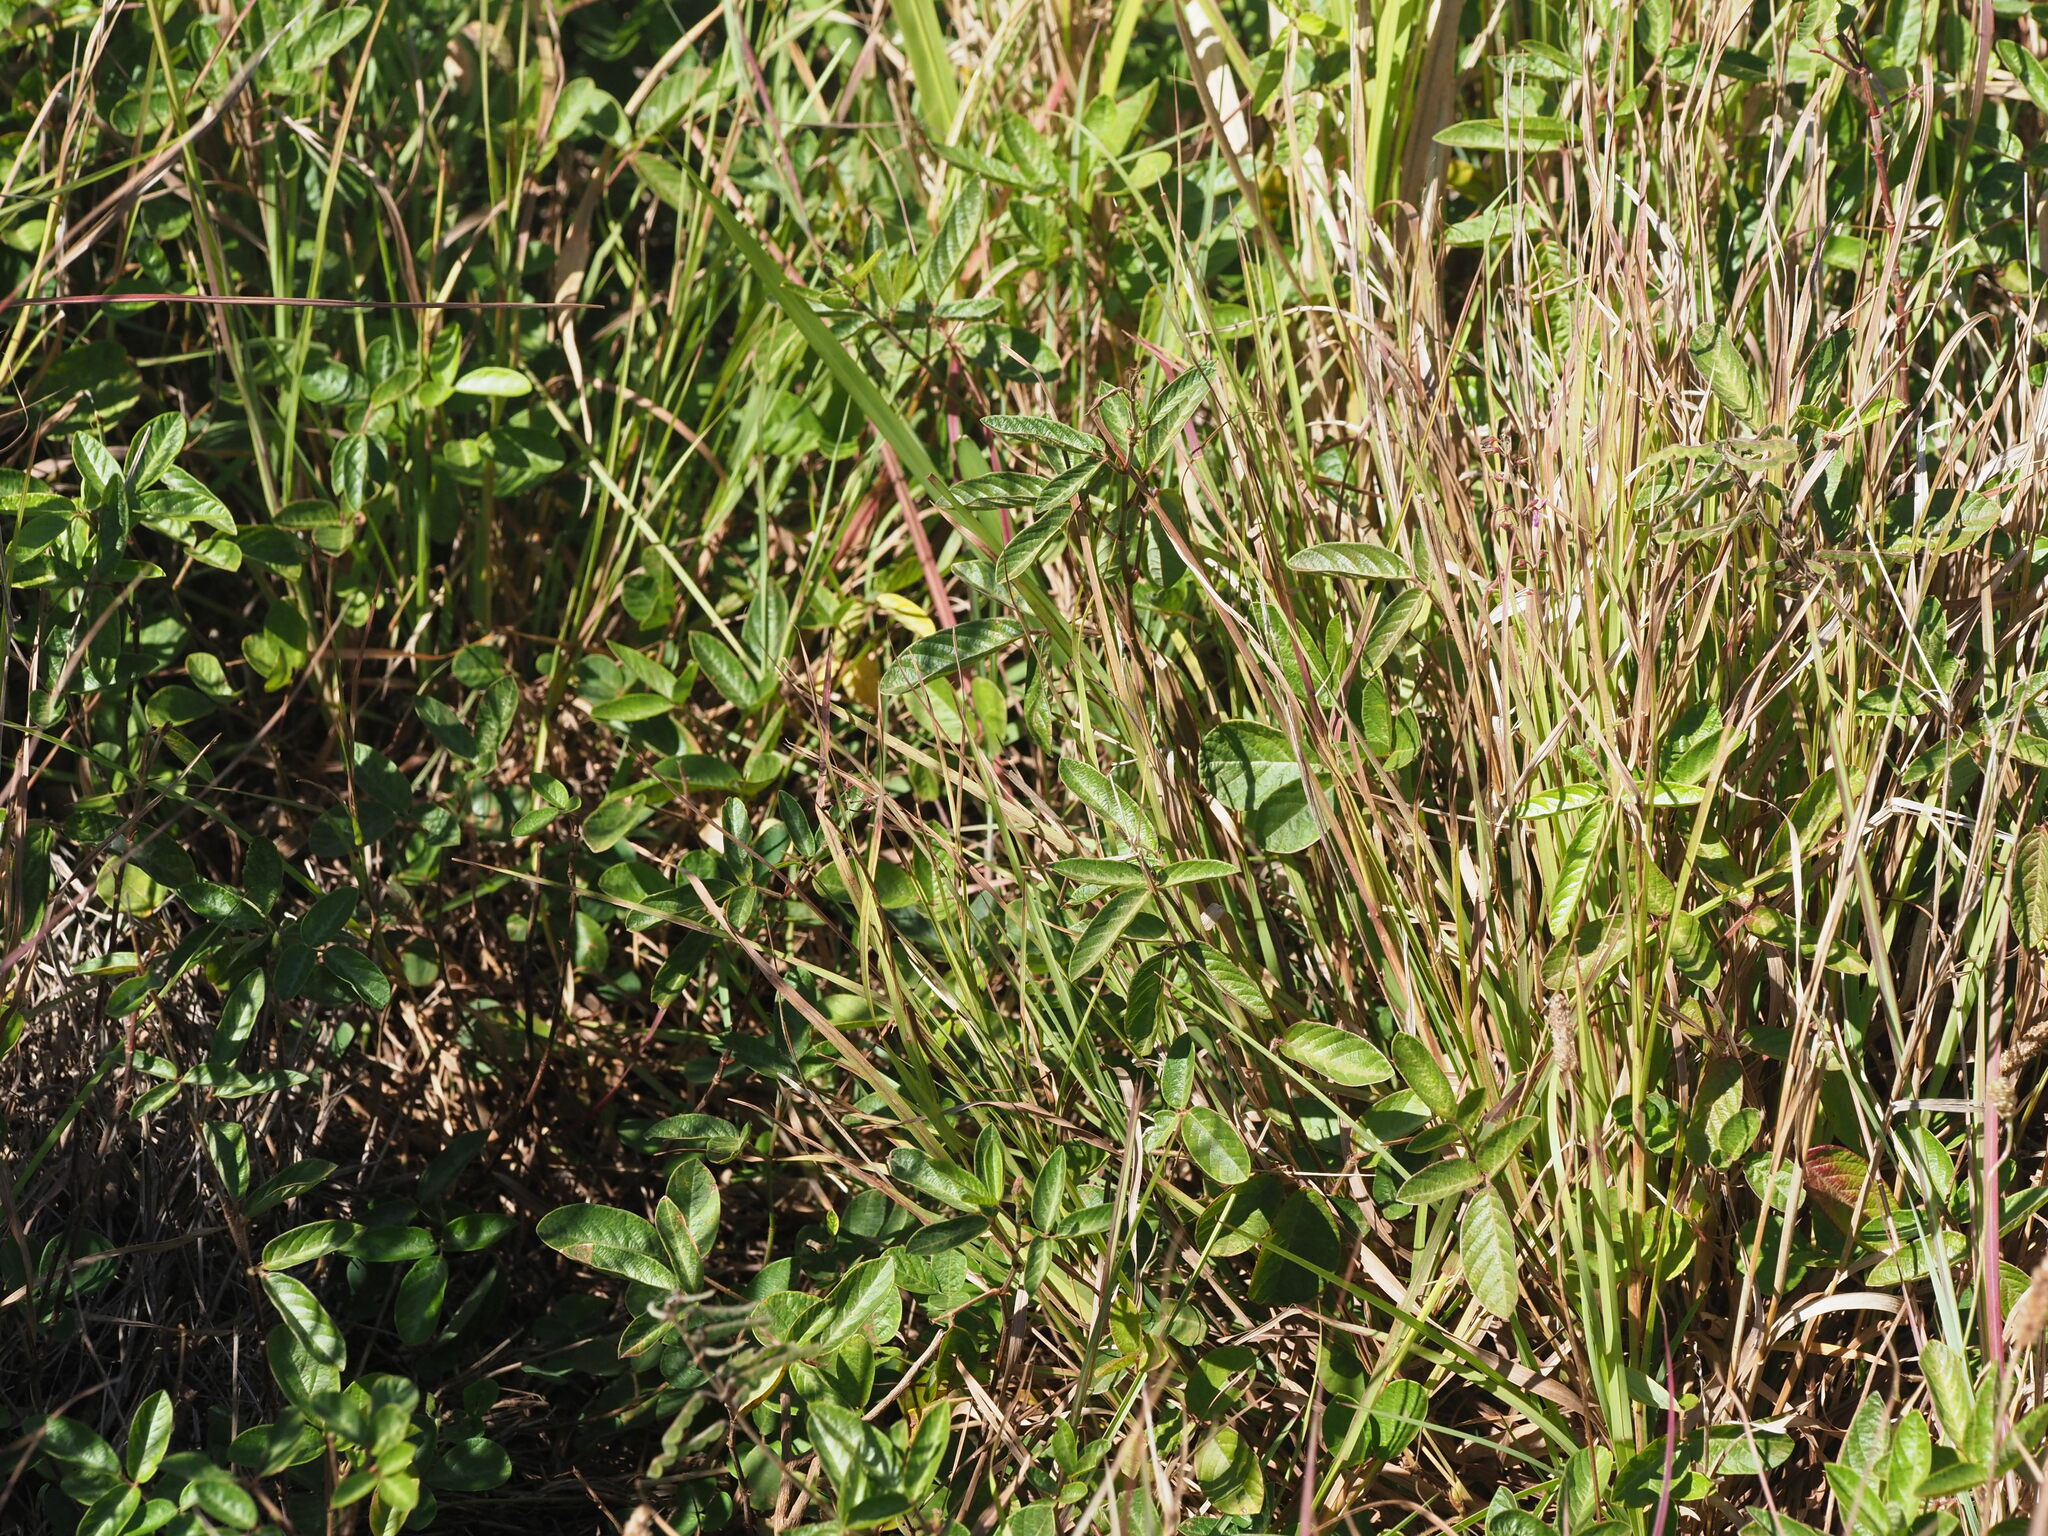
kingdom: Plantae
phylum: Tracheophyta
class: Magnoliopsida
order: Fabales
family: Fabaceae
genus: Desmodium
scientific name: Desmodium incanum
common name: Tickclover
